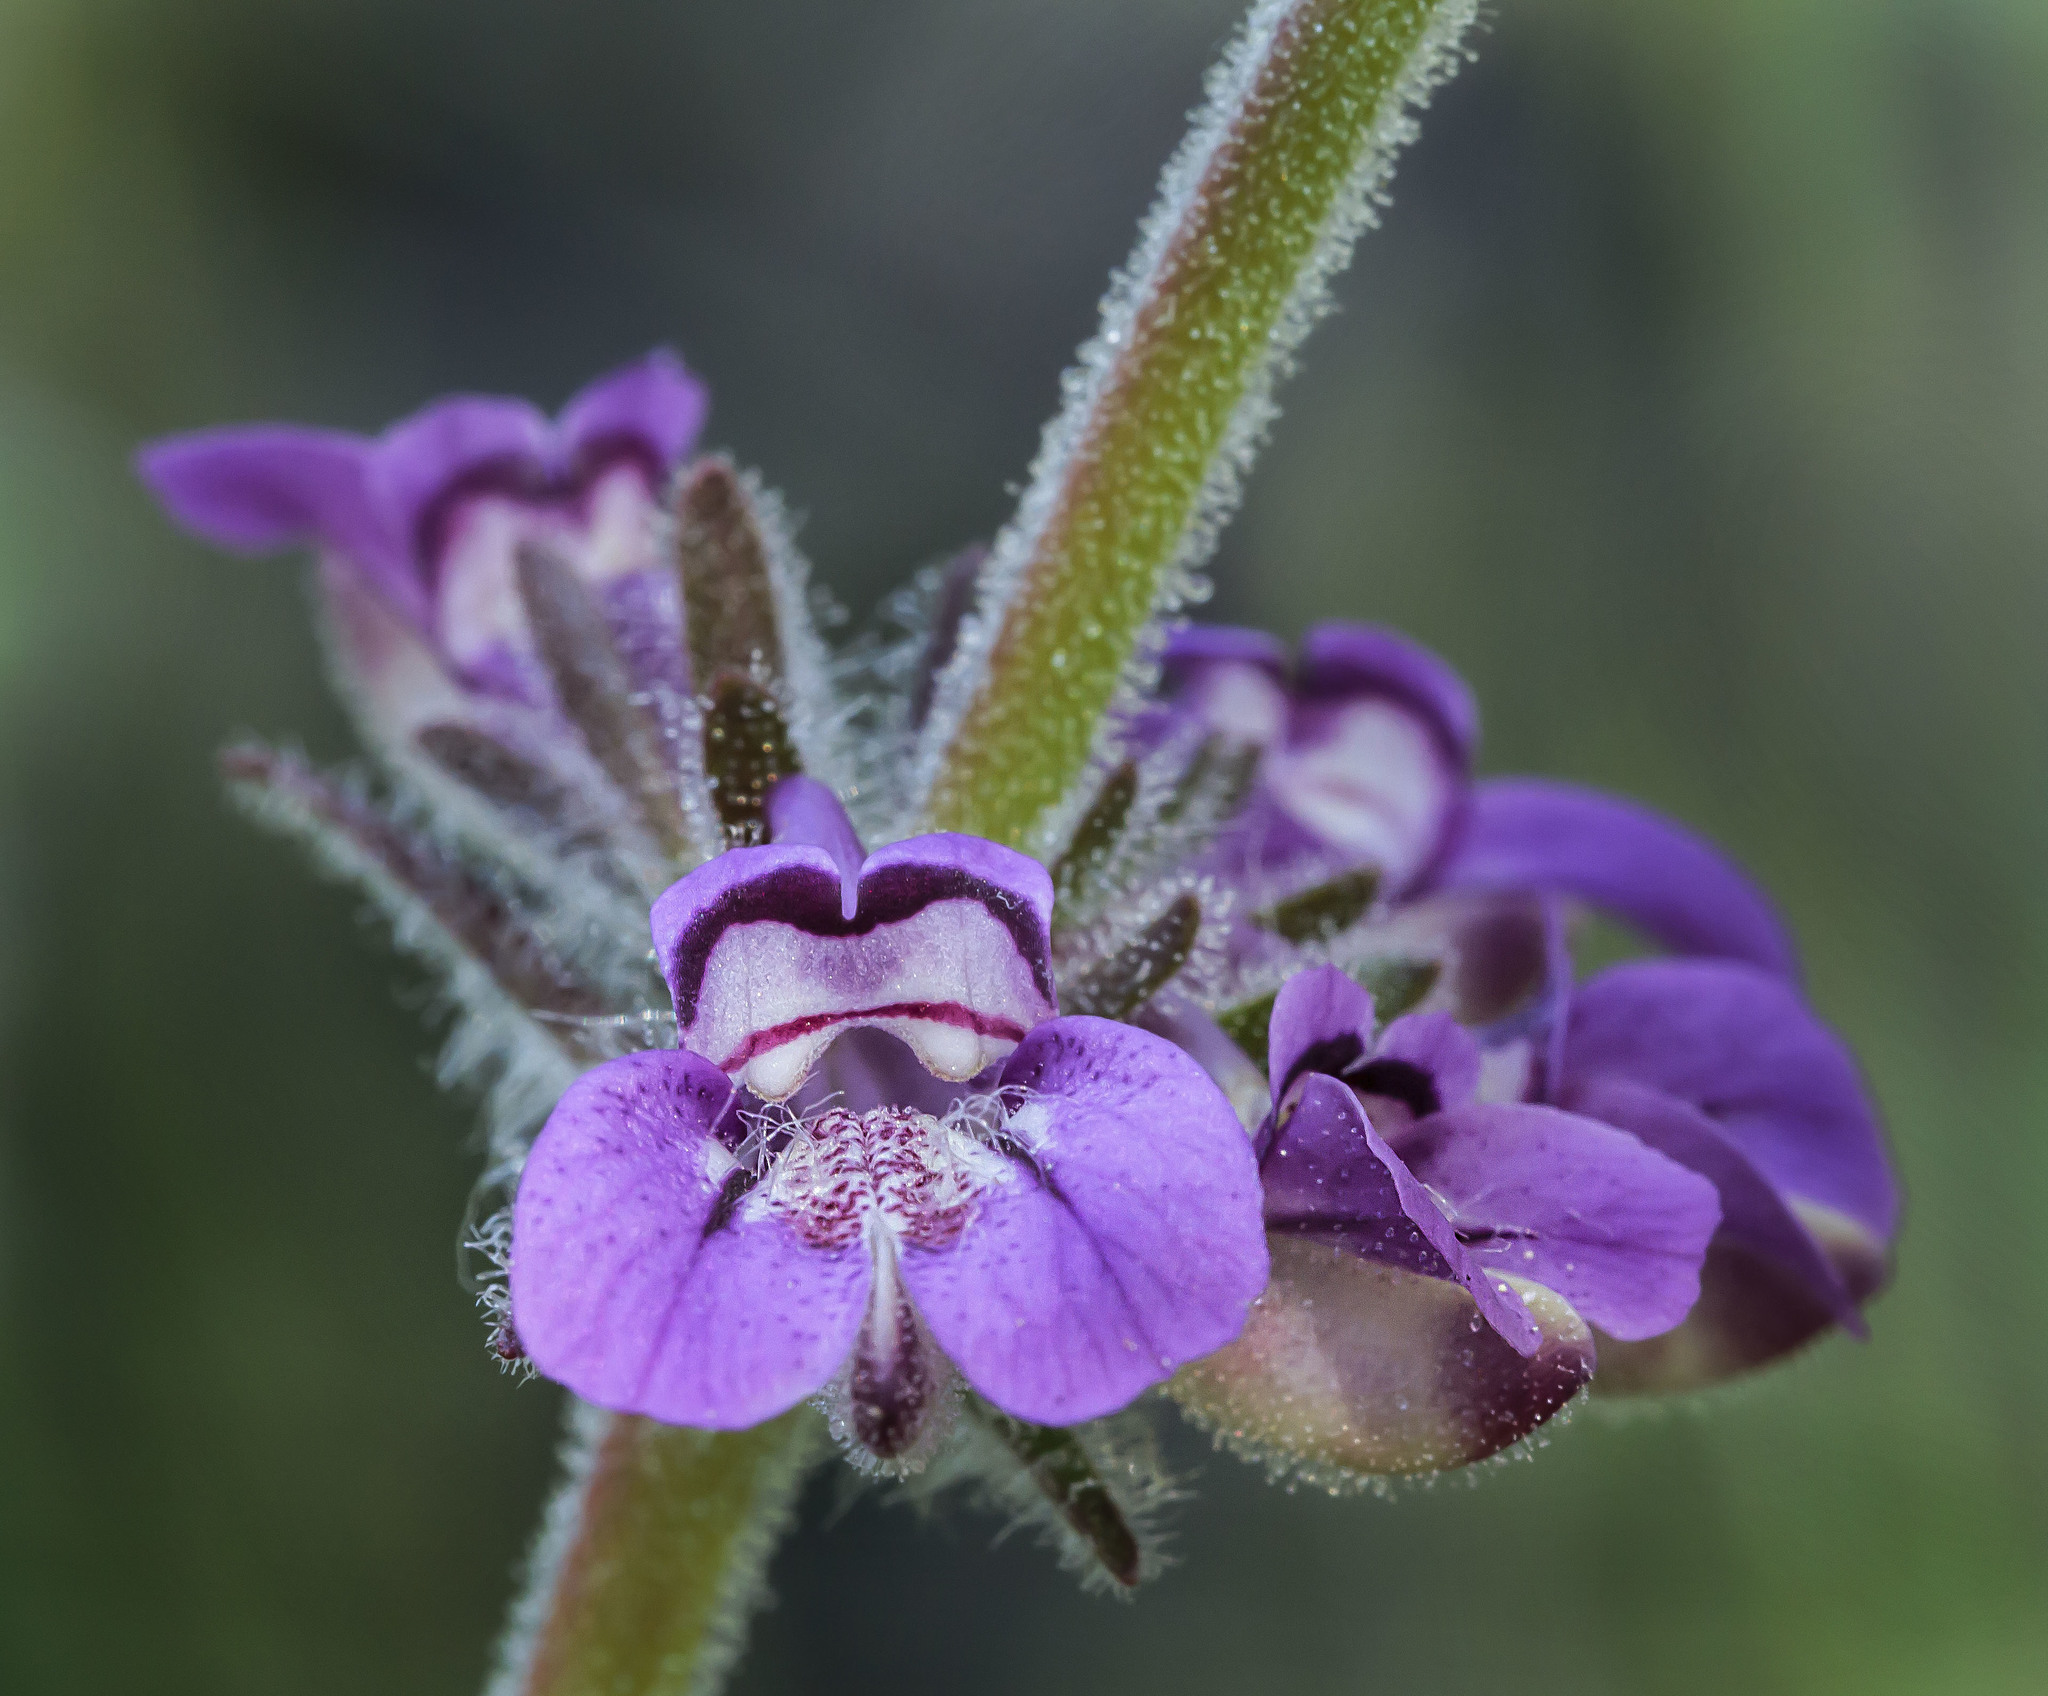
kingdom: Plantae
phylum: Tracheophyta
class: Magnoliopsida
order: Lamiales
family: Plantaginaceae
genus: Collinsia
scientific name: Collinsia tinctoria
